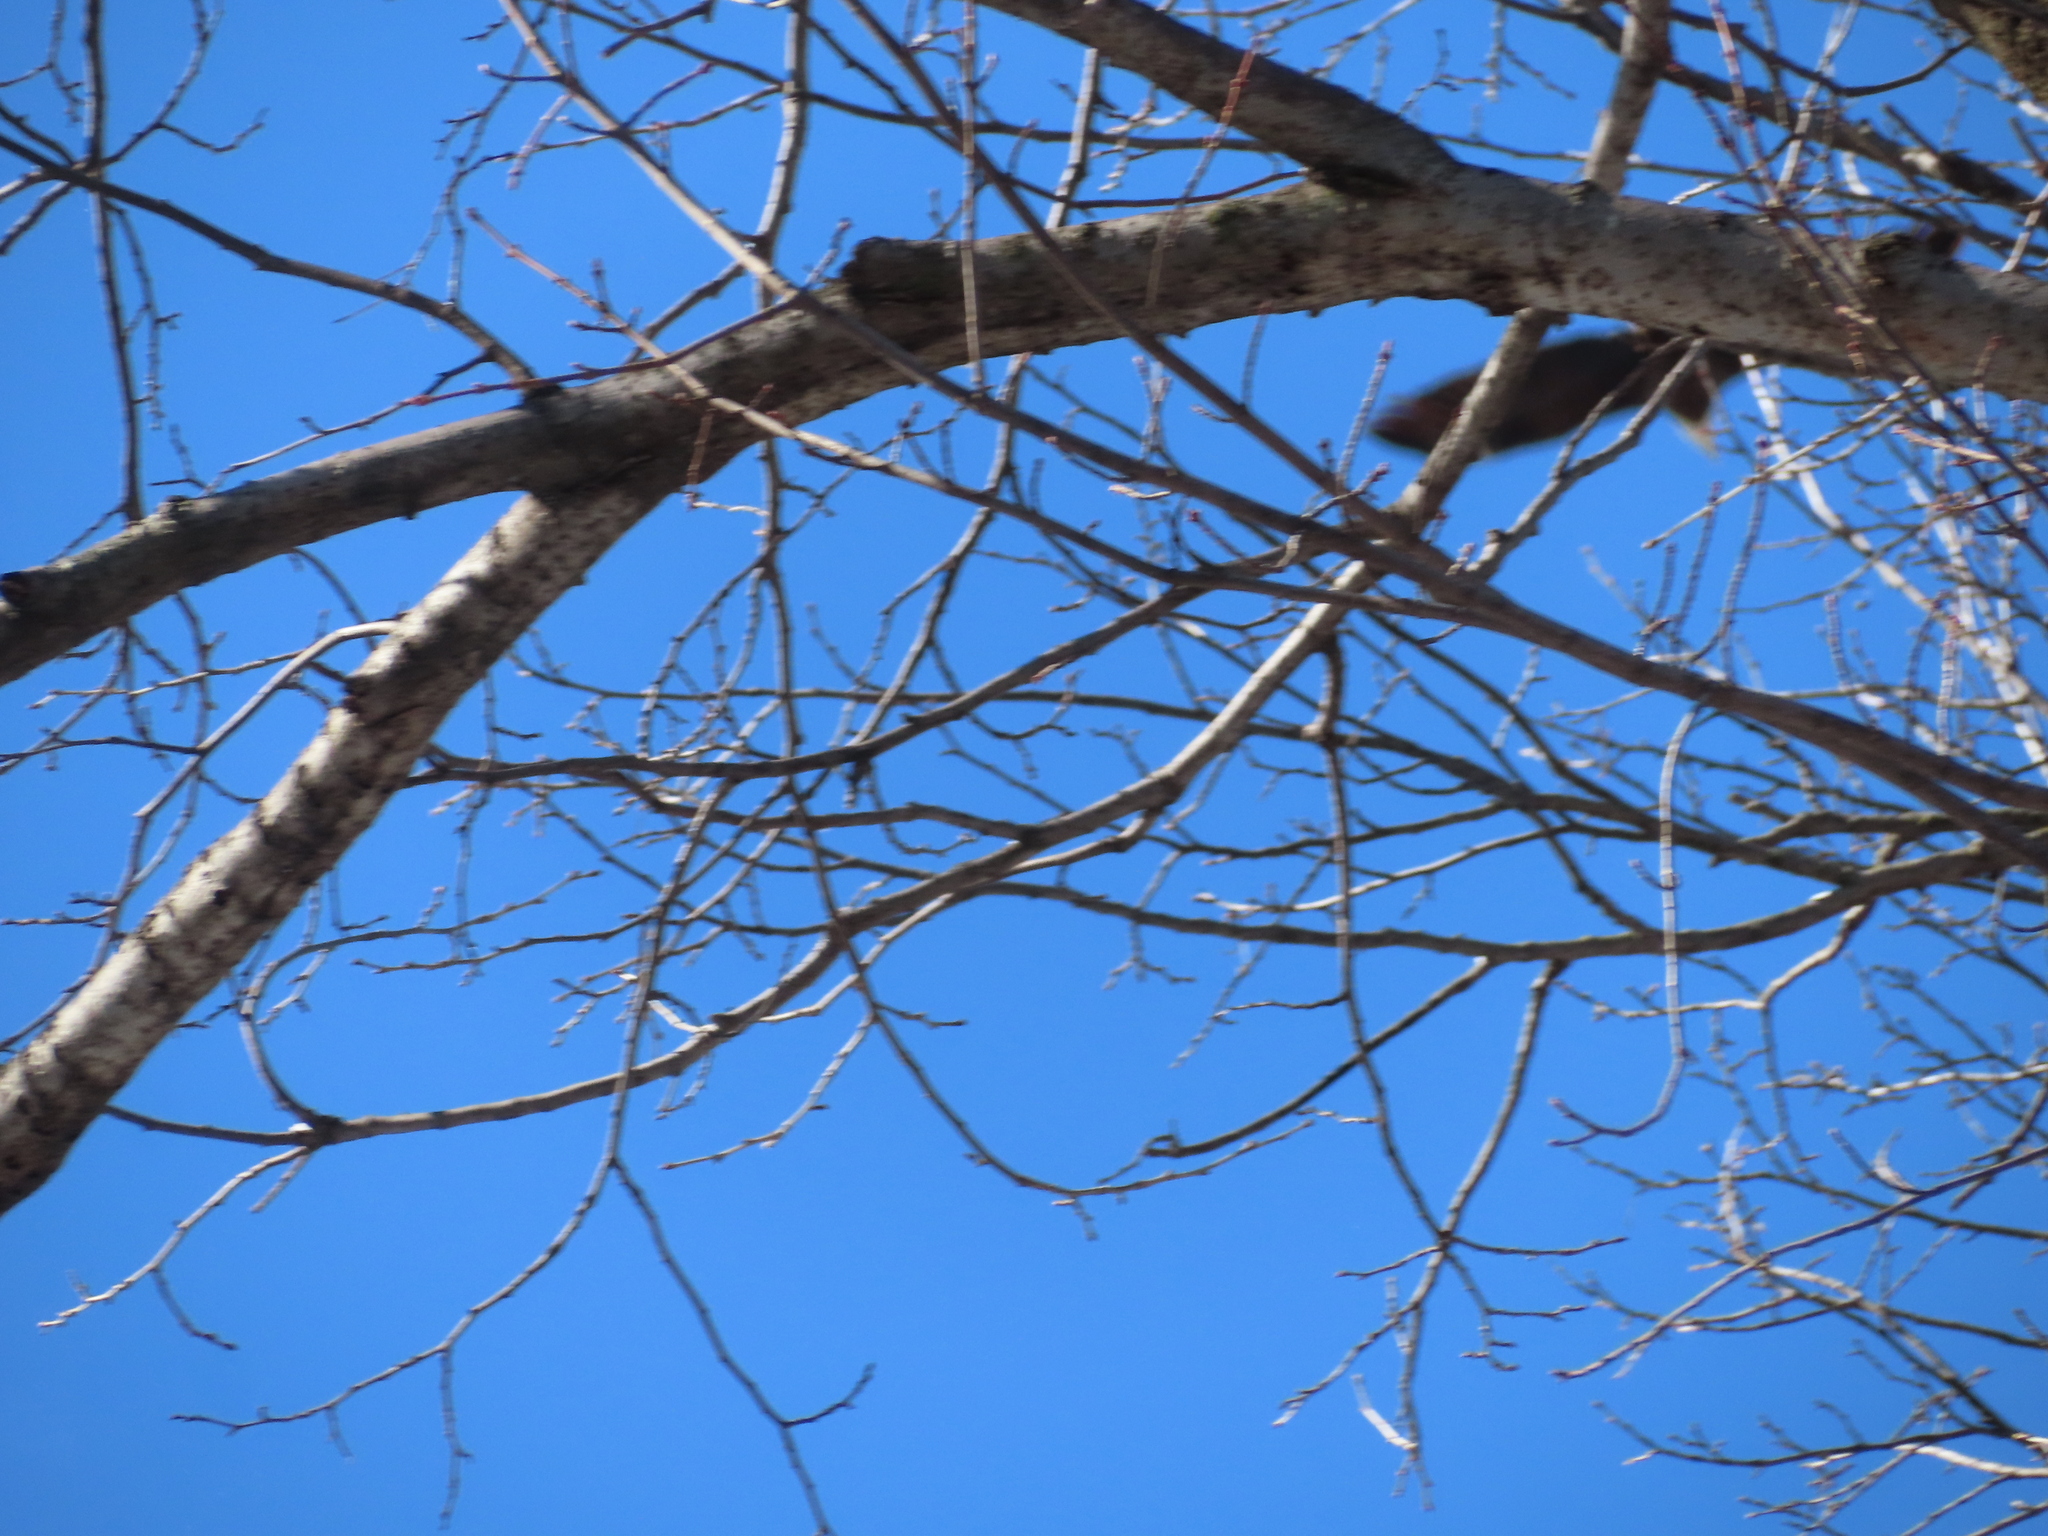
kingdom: Animalia
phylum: Chordata
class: Aves
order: Accipitriformes
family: Accipitridae
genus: Haliaeetus
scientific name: Haliaeetus leucocephalus
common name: Bald eagle
